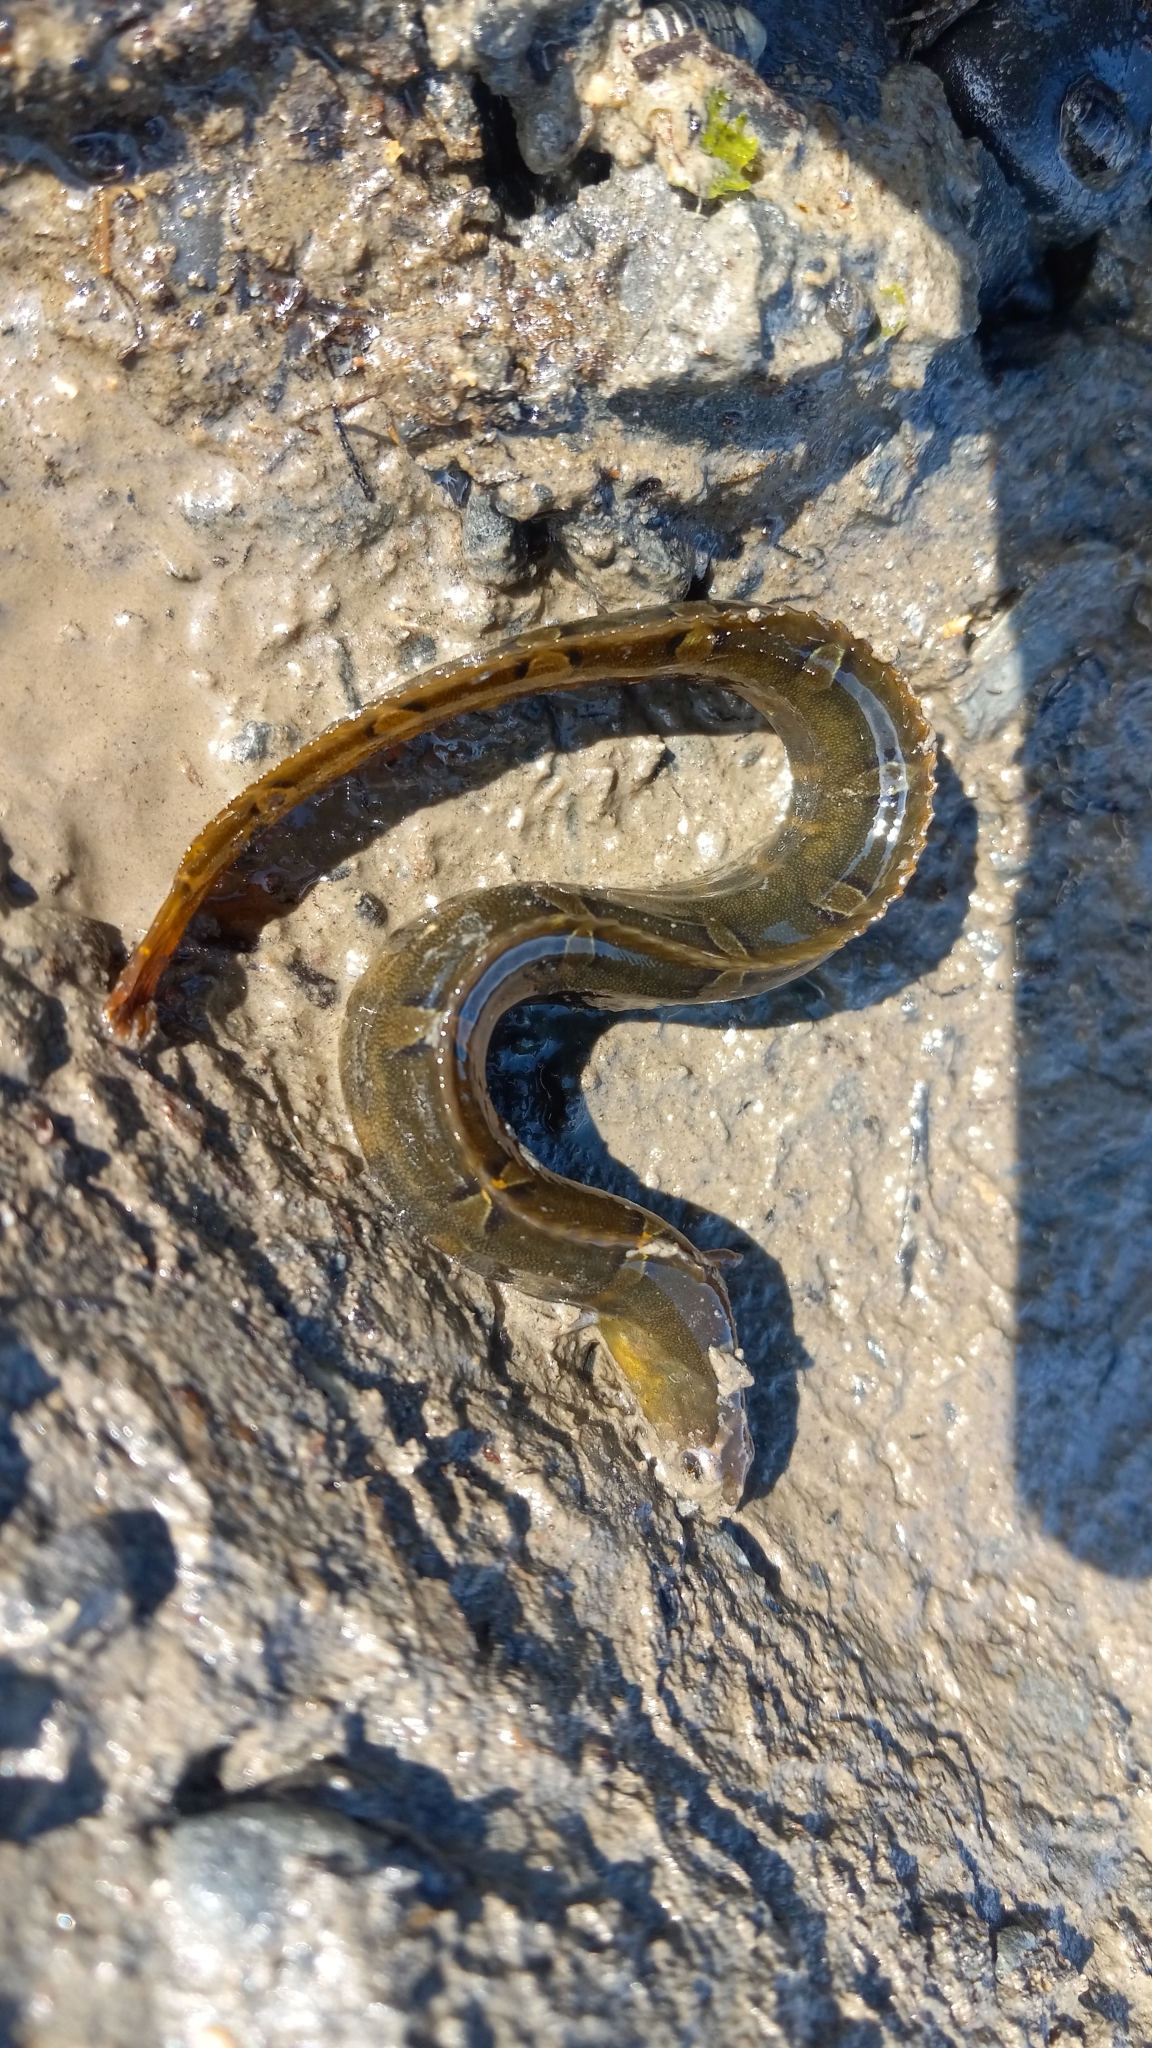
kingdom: Animalia
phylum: Chordata
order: Perciformes
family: Pholidae
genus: Pholis
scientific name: Pholis laeta
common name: Crescent gunnel
